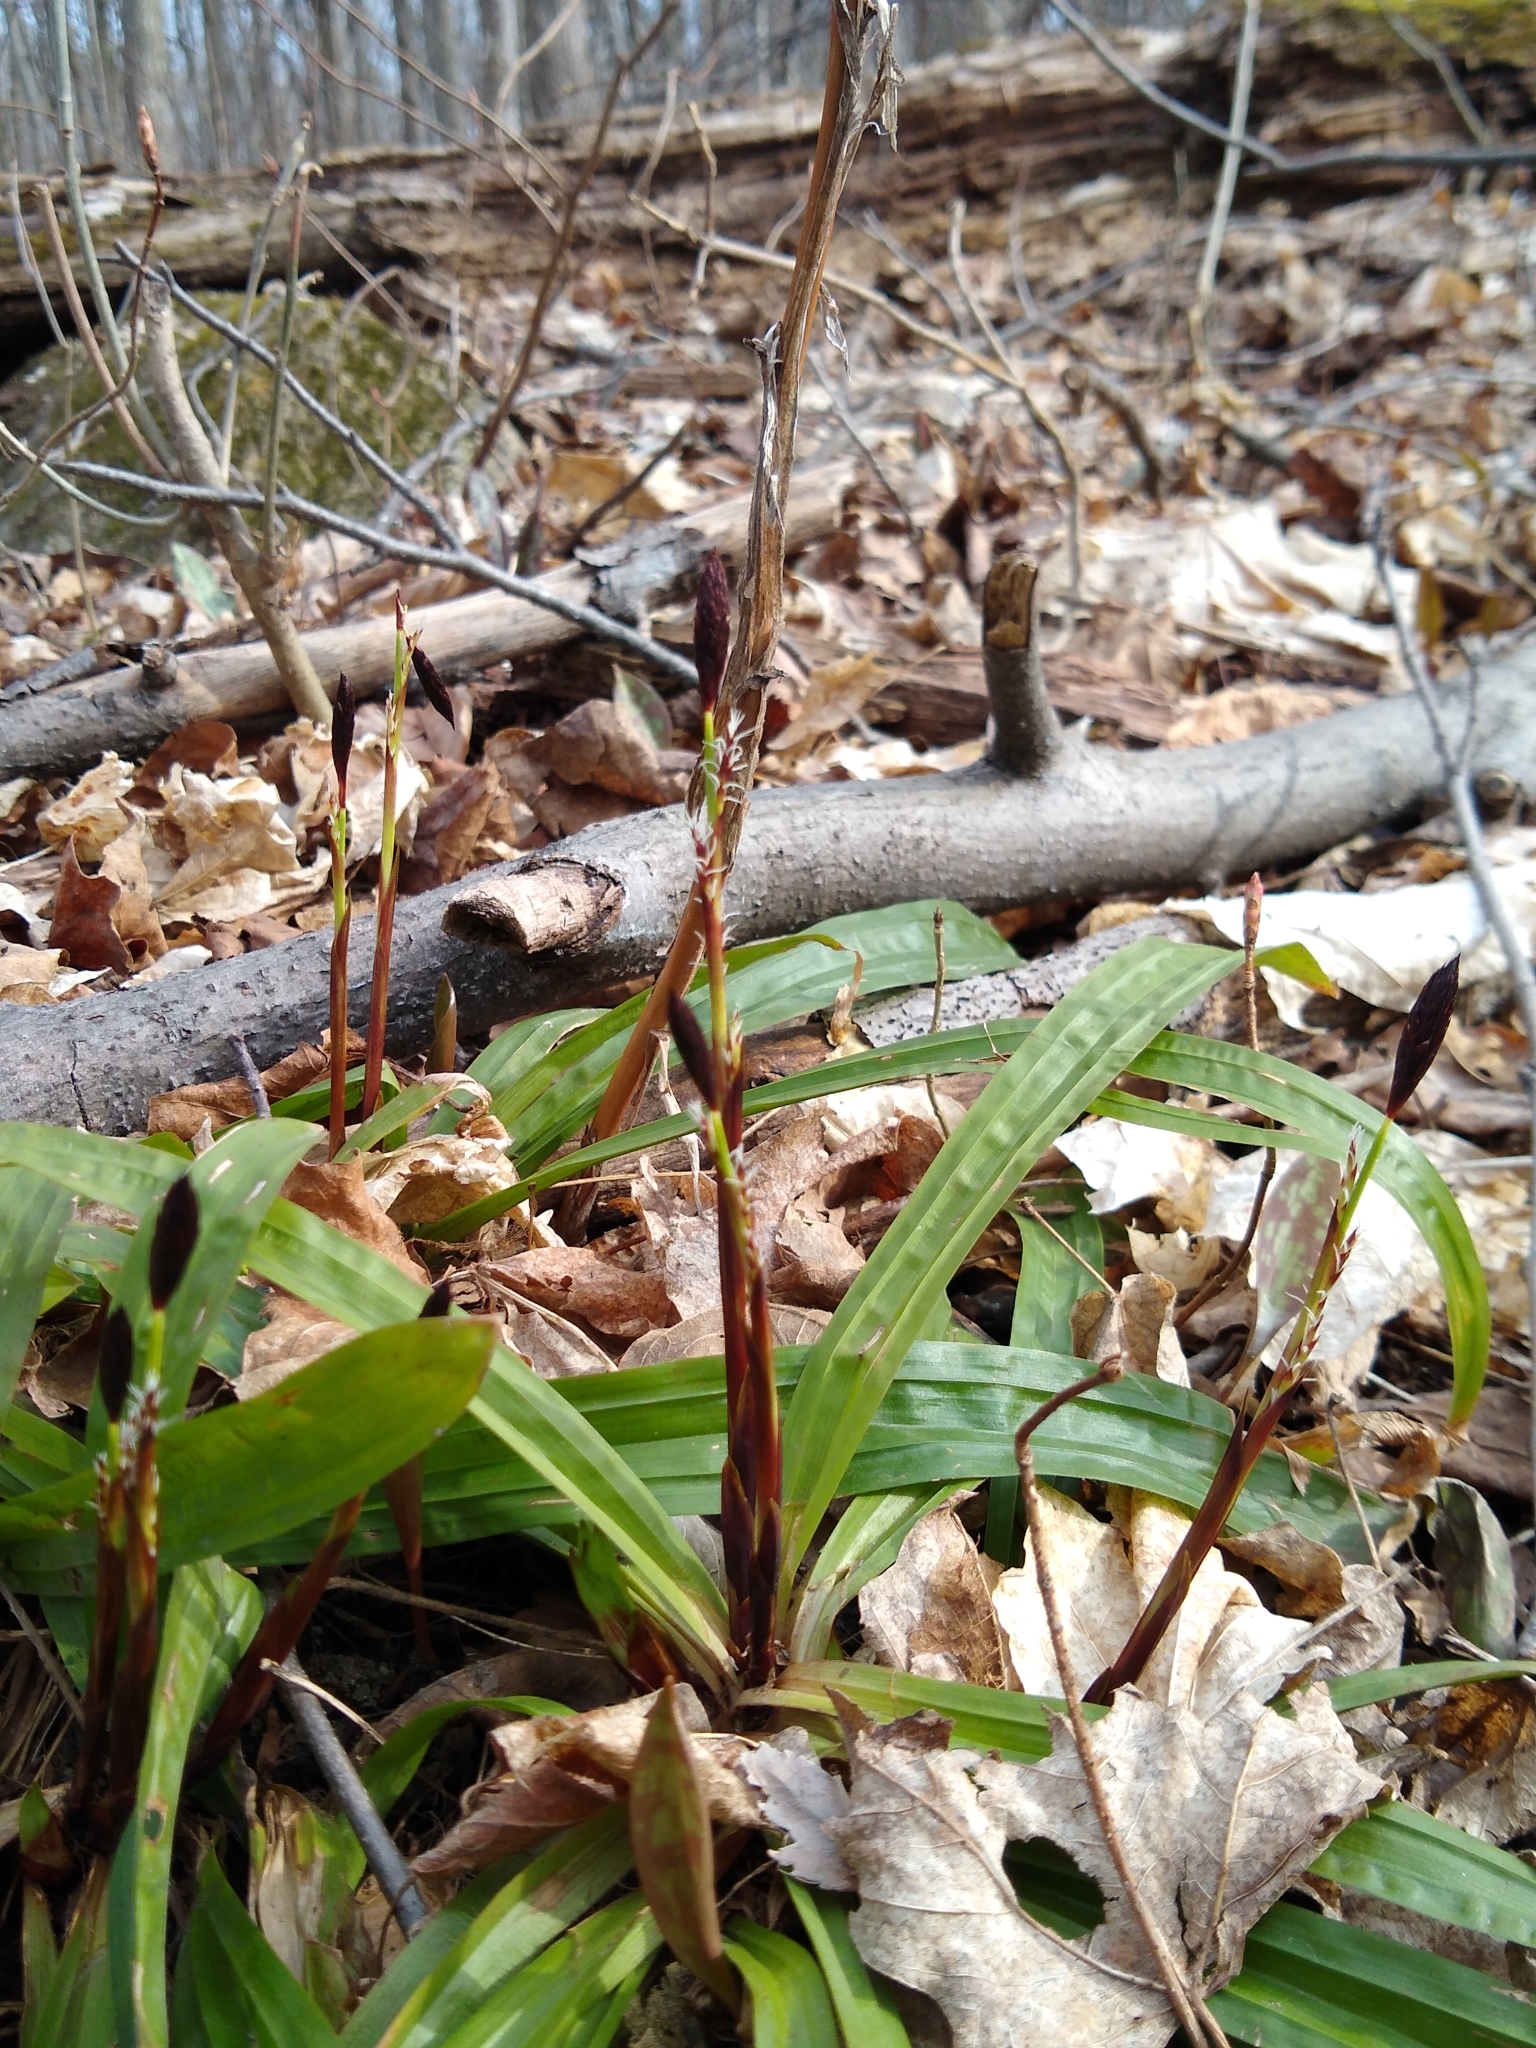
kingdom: Plantae
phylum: Tracheophyta
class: Liliopsida
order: Poales
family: Cyperaceae
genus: Carex
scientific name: Carex plantaginea
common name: Plantain-leaved sedge
